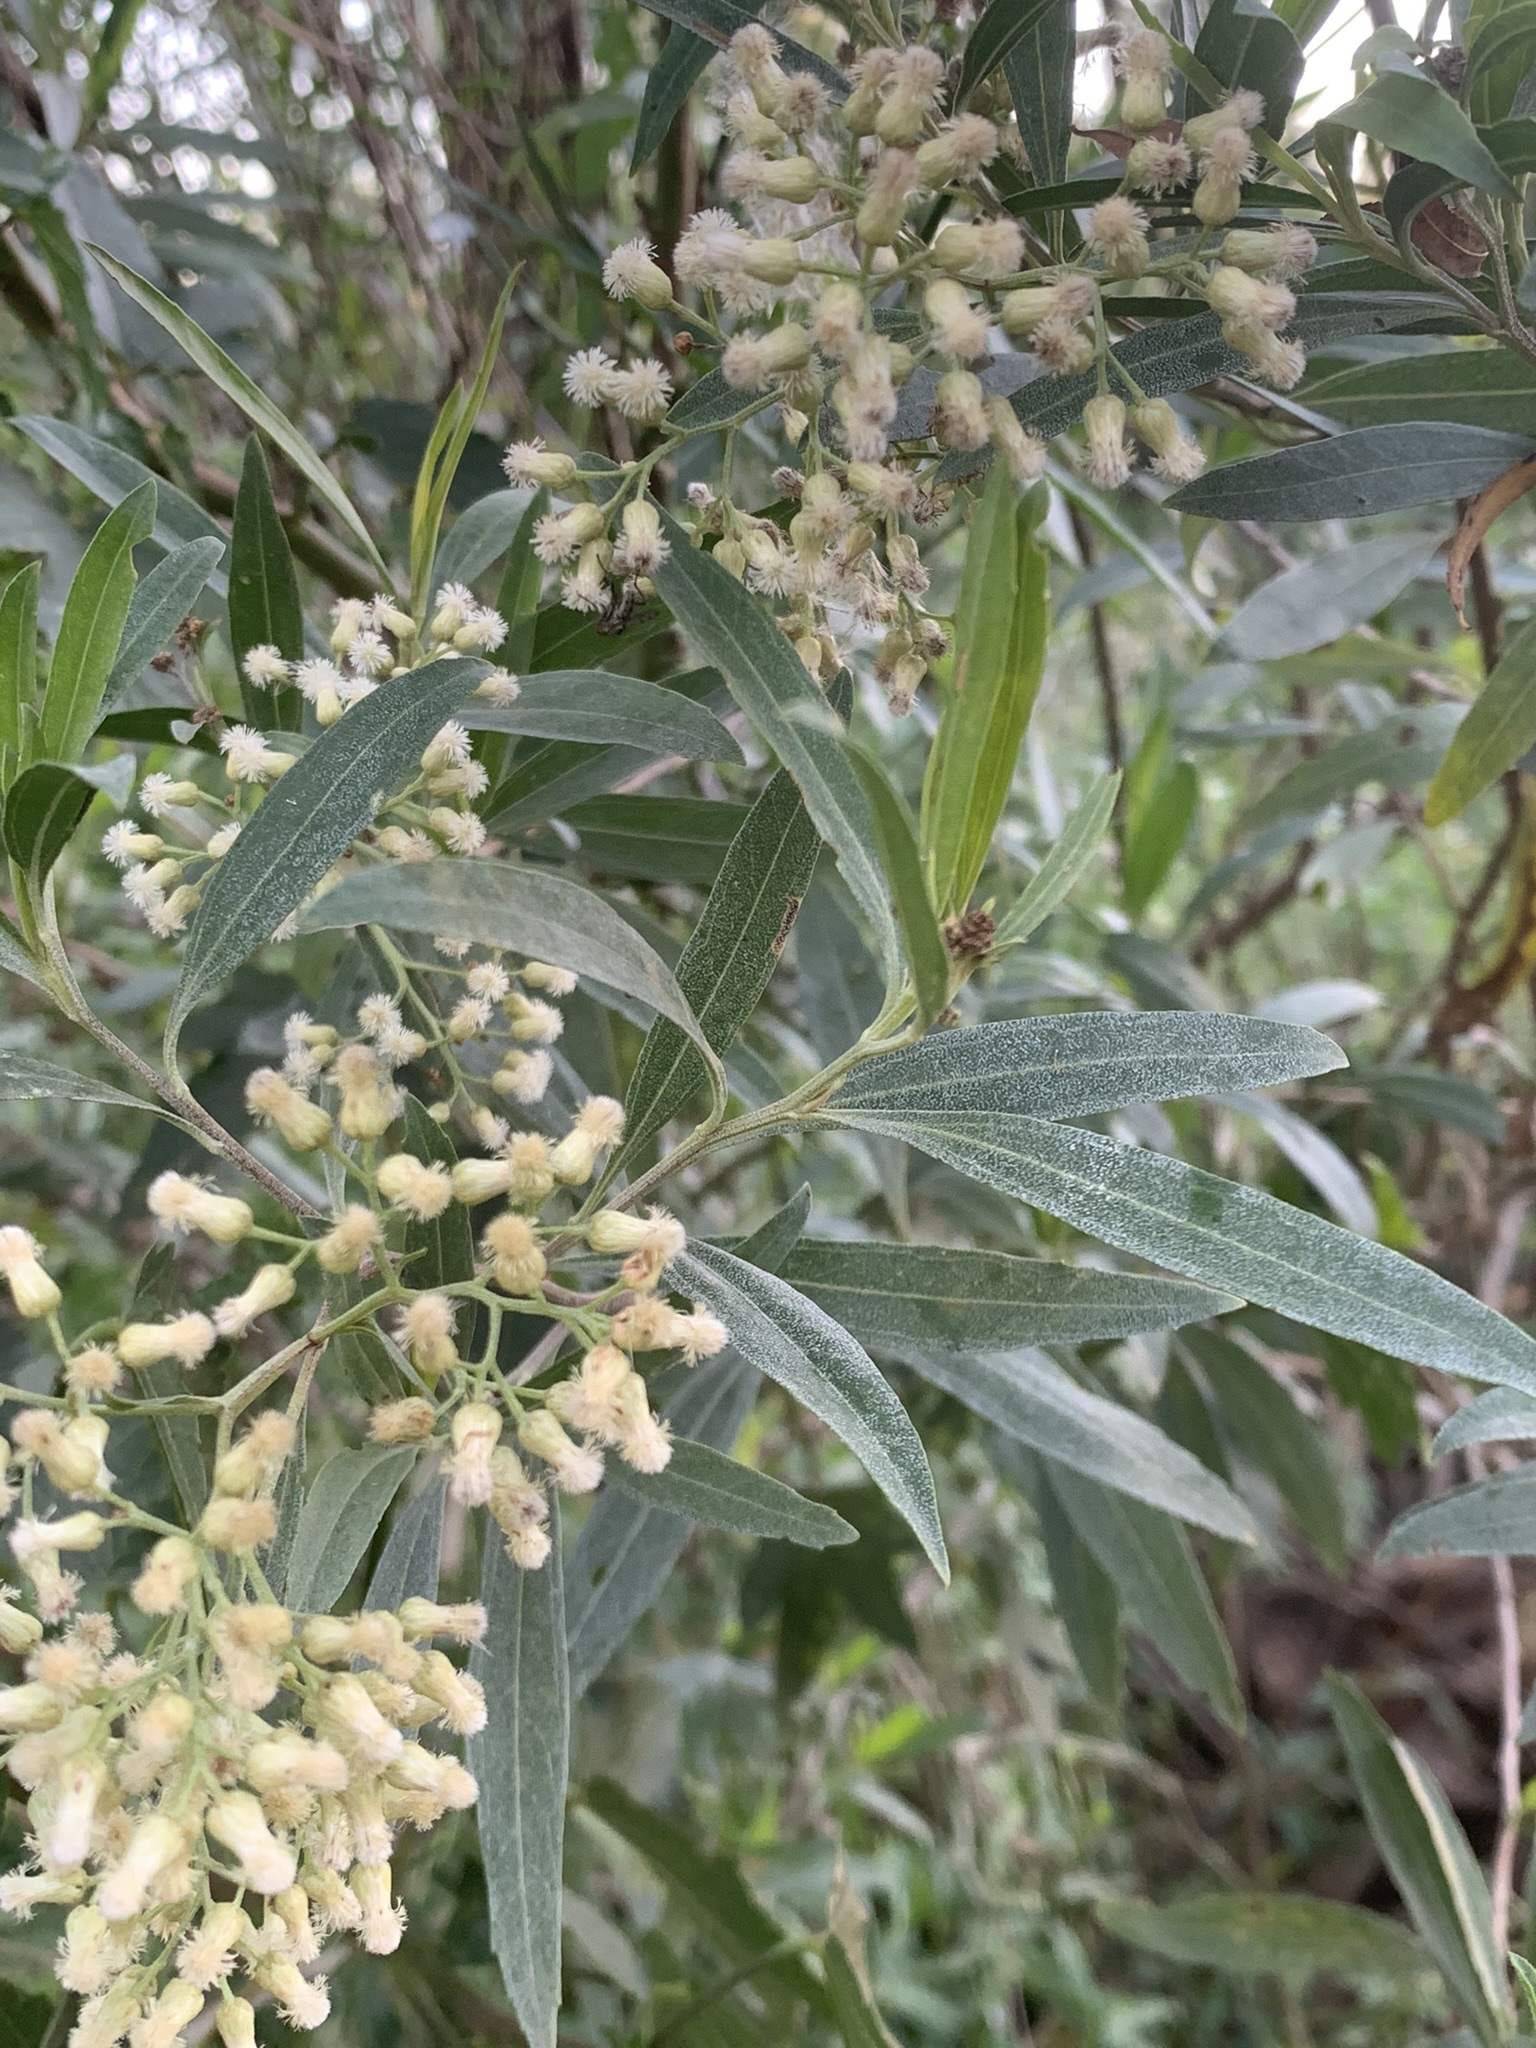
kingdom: Plantae
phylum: Tracheophyta
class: Magnoliopsida
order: Asterales
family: Asteraceae
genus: Baccharis
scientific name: Baccharis salicifolia
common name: Sticky baccharis
